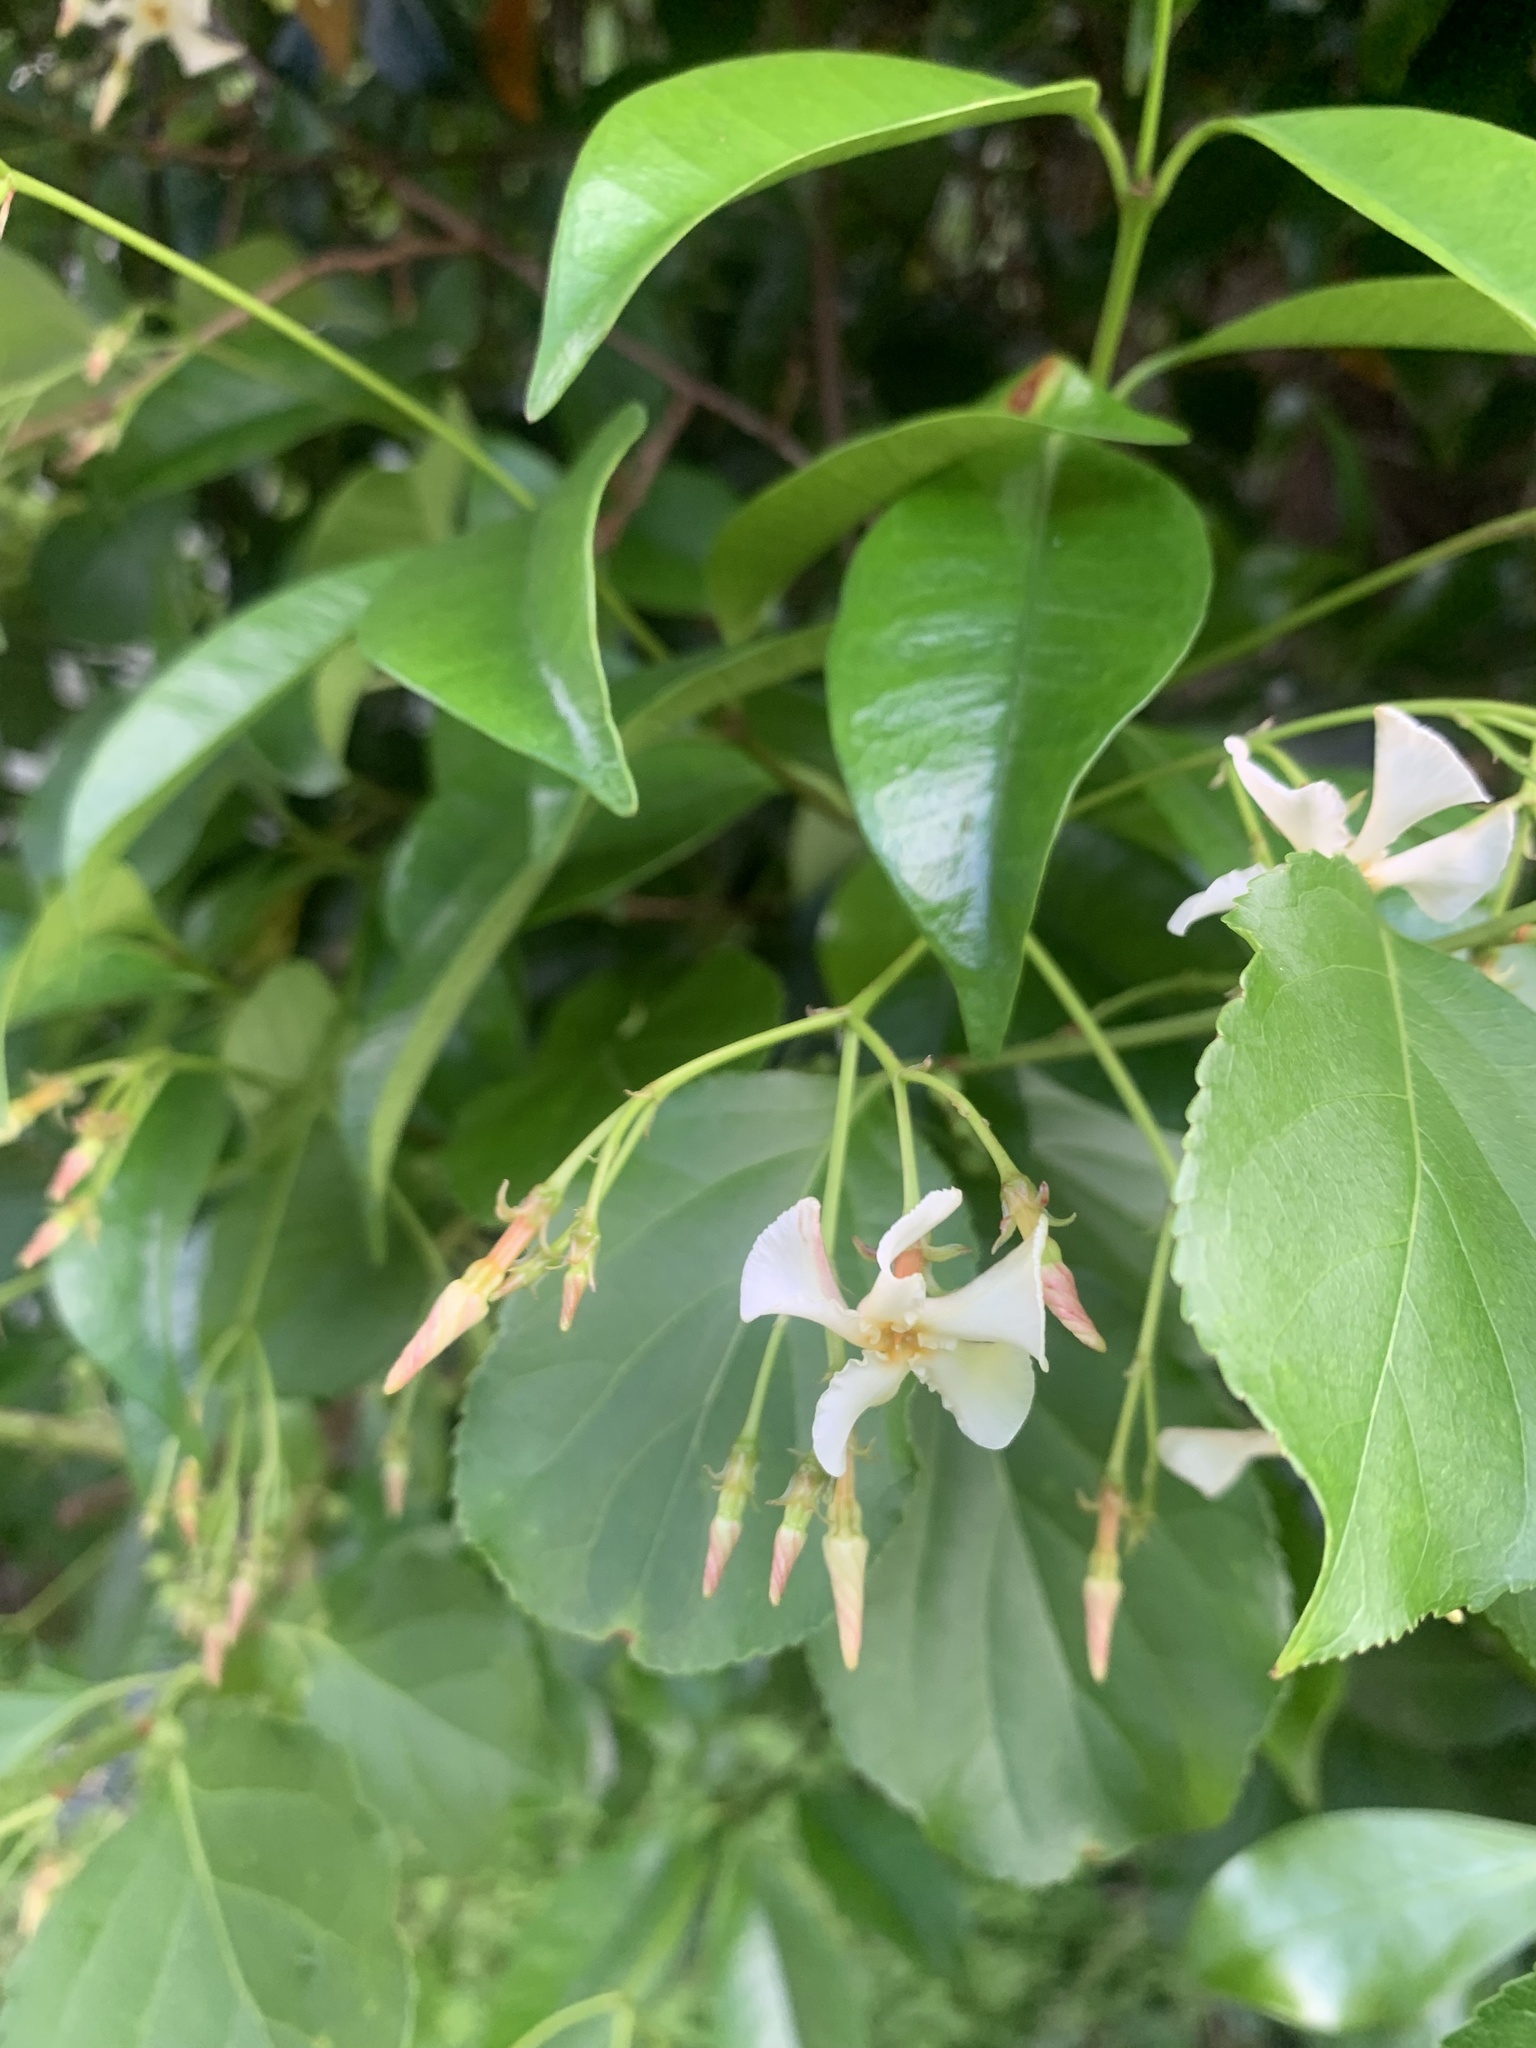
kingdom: Plantae
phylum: Tracheophyta
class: Magnoliopsida
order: Gentianales
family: Apocynaceae
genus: Trachelospermum
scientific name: Trachelospermum asiaticum
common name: Asiatic jasmine
